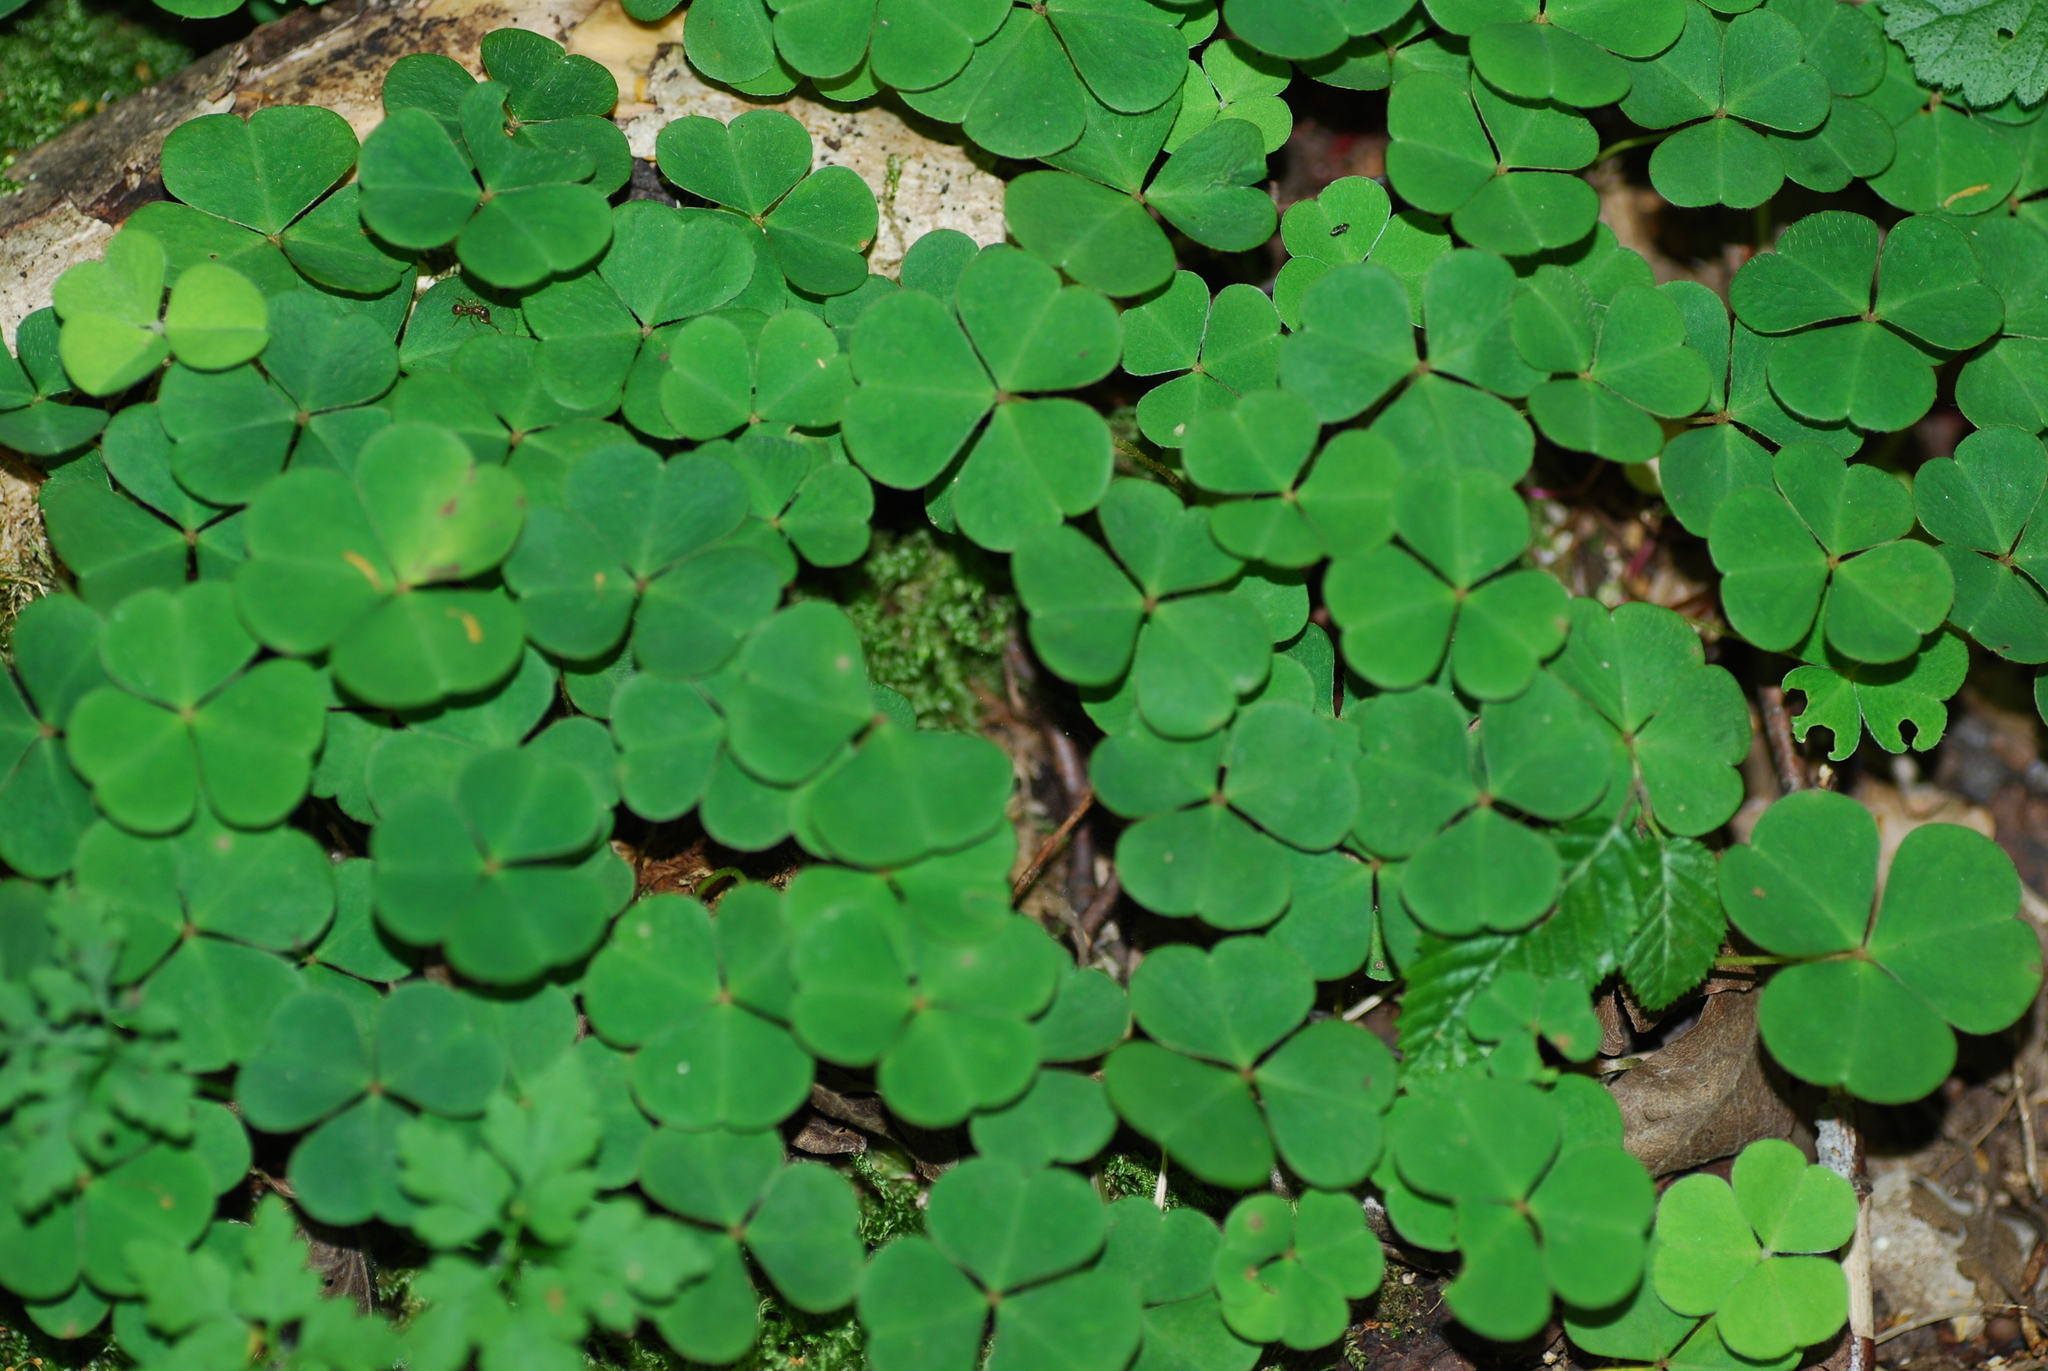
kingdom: Plantae
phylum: Tracheophyta
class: Magnoliopsida
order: Oxalidales
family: Oxalidaceae
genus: Oxalis
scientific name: Oxalis acetosella
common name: Wood-sorrel
